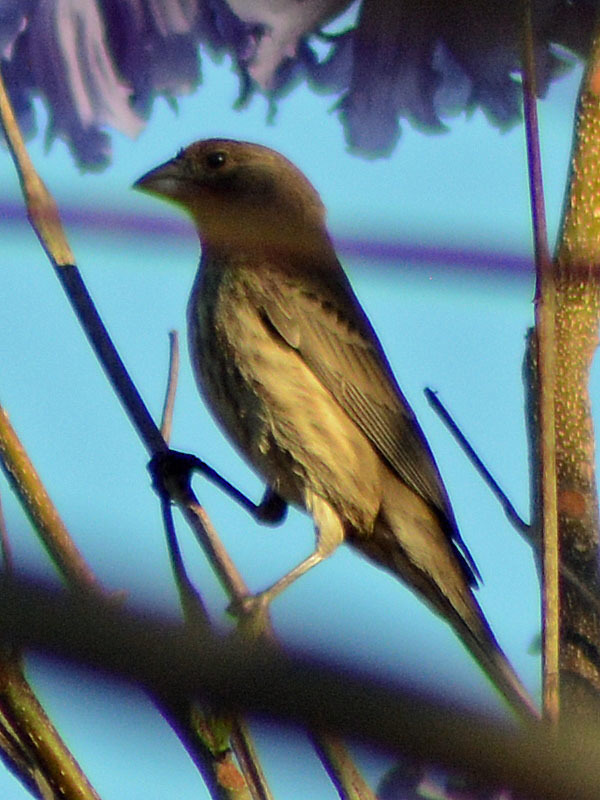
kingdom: Animalia
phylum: Chordata
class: Aves
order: Passeriformes
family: Fringillidae
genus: Haemorhous
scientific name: Haemorhous mexicanus
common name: House finch
